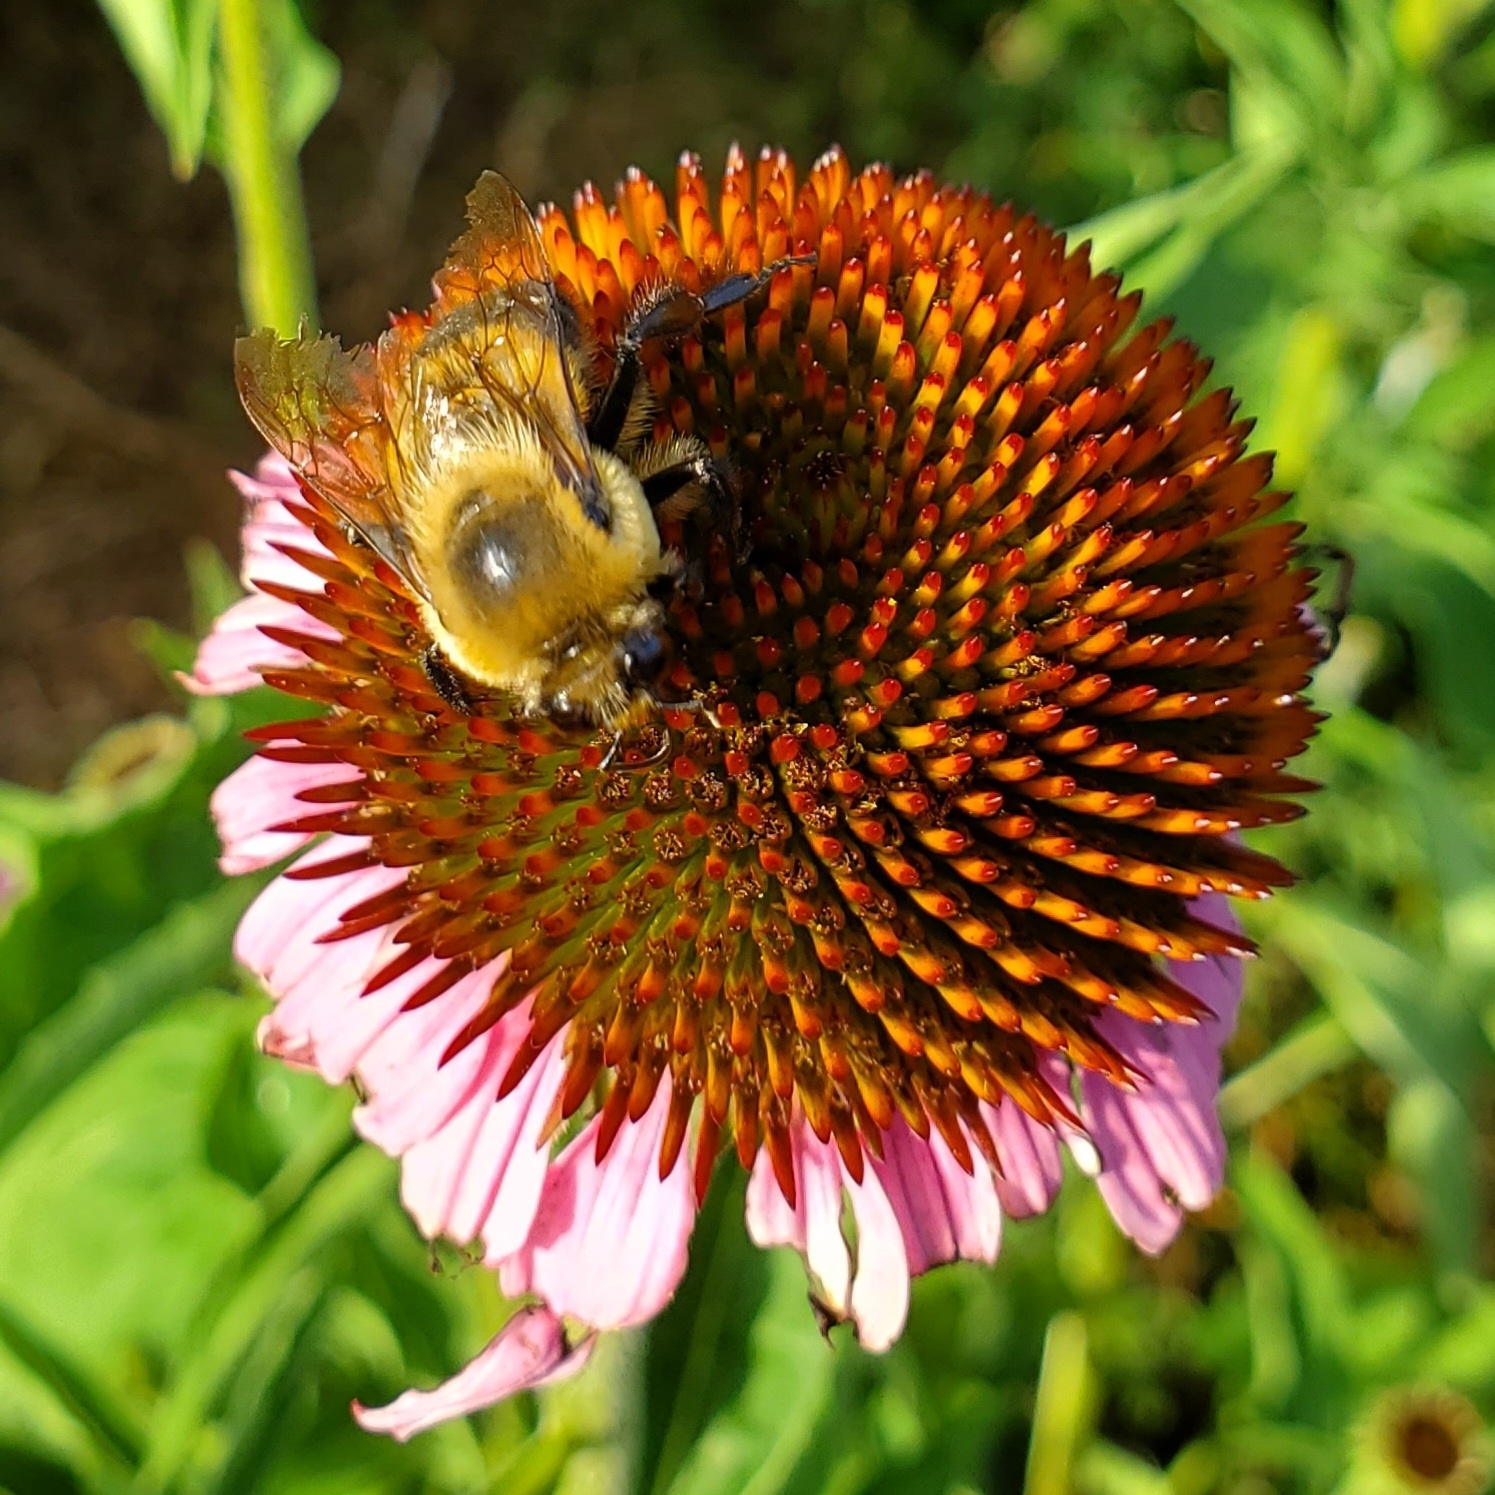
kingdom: Animalia
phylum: Arthropoda
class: Insecta
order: Hymenoptera
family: Apidae
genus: Bombus
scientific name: Bombus griseocollis
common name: Brown-belted bumble bee
